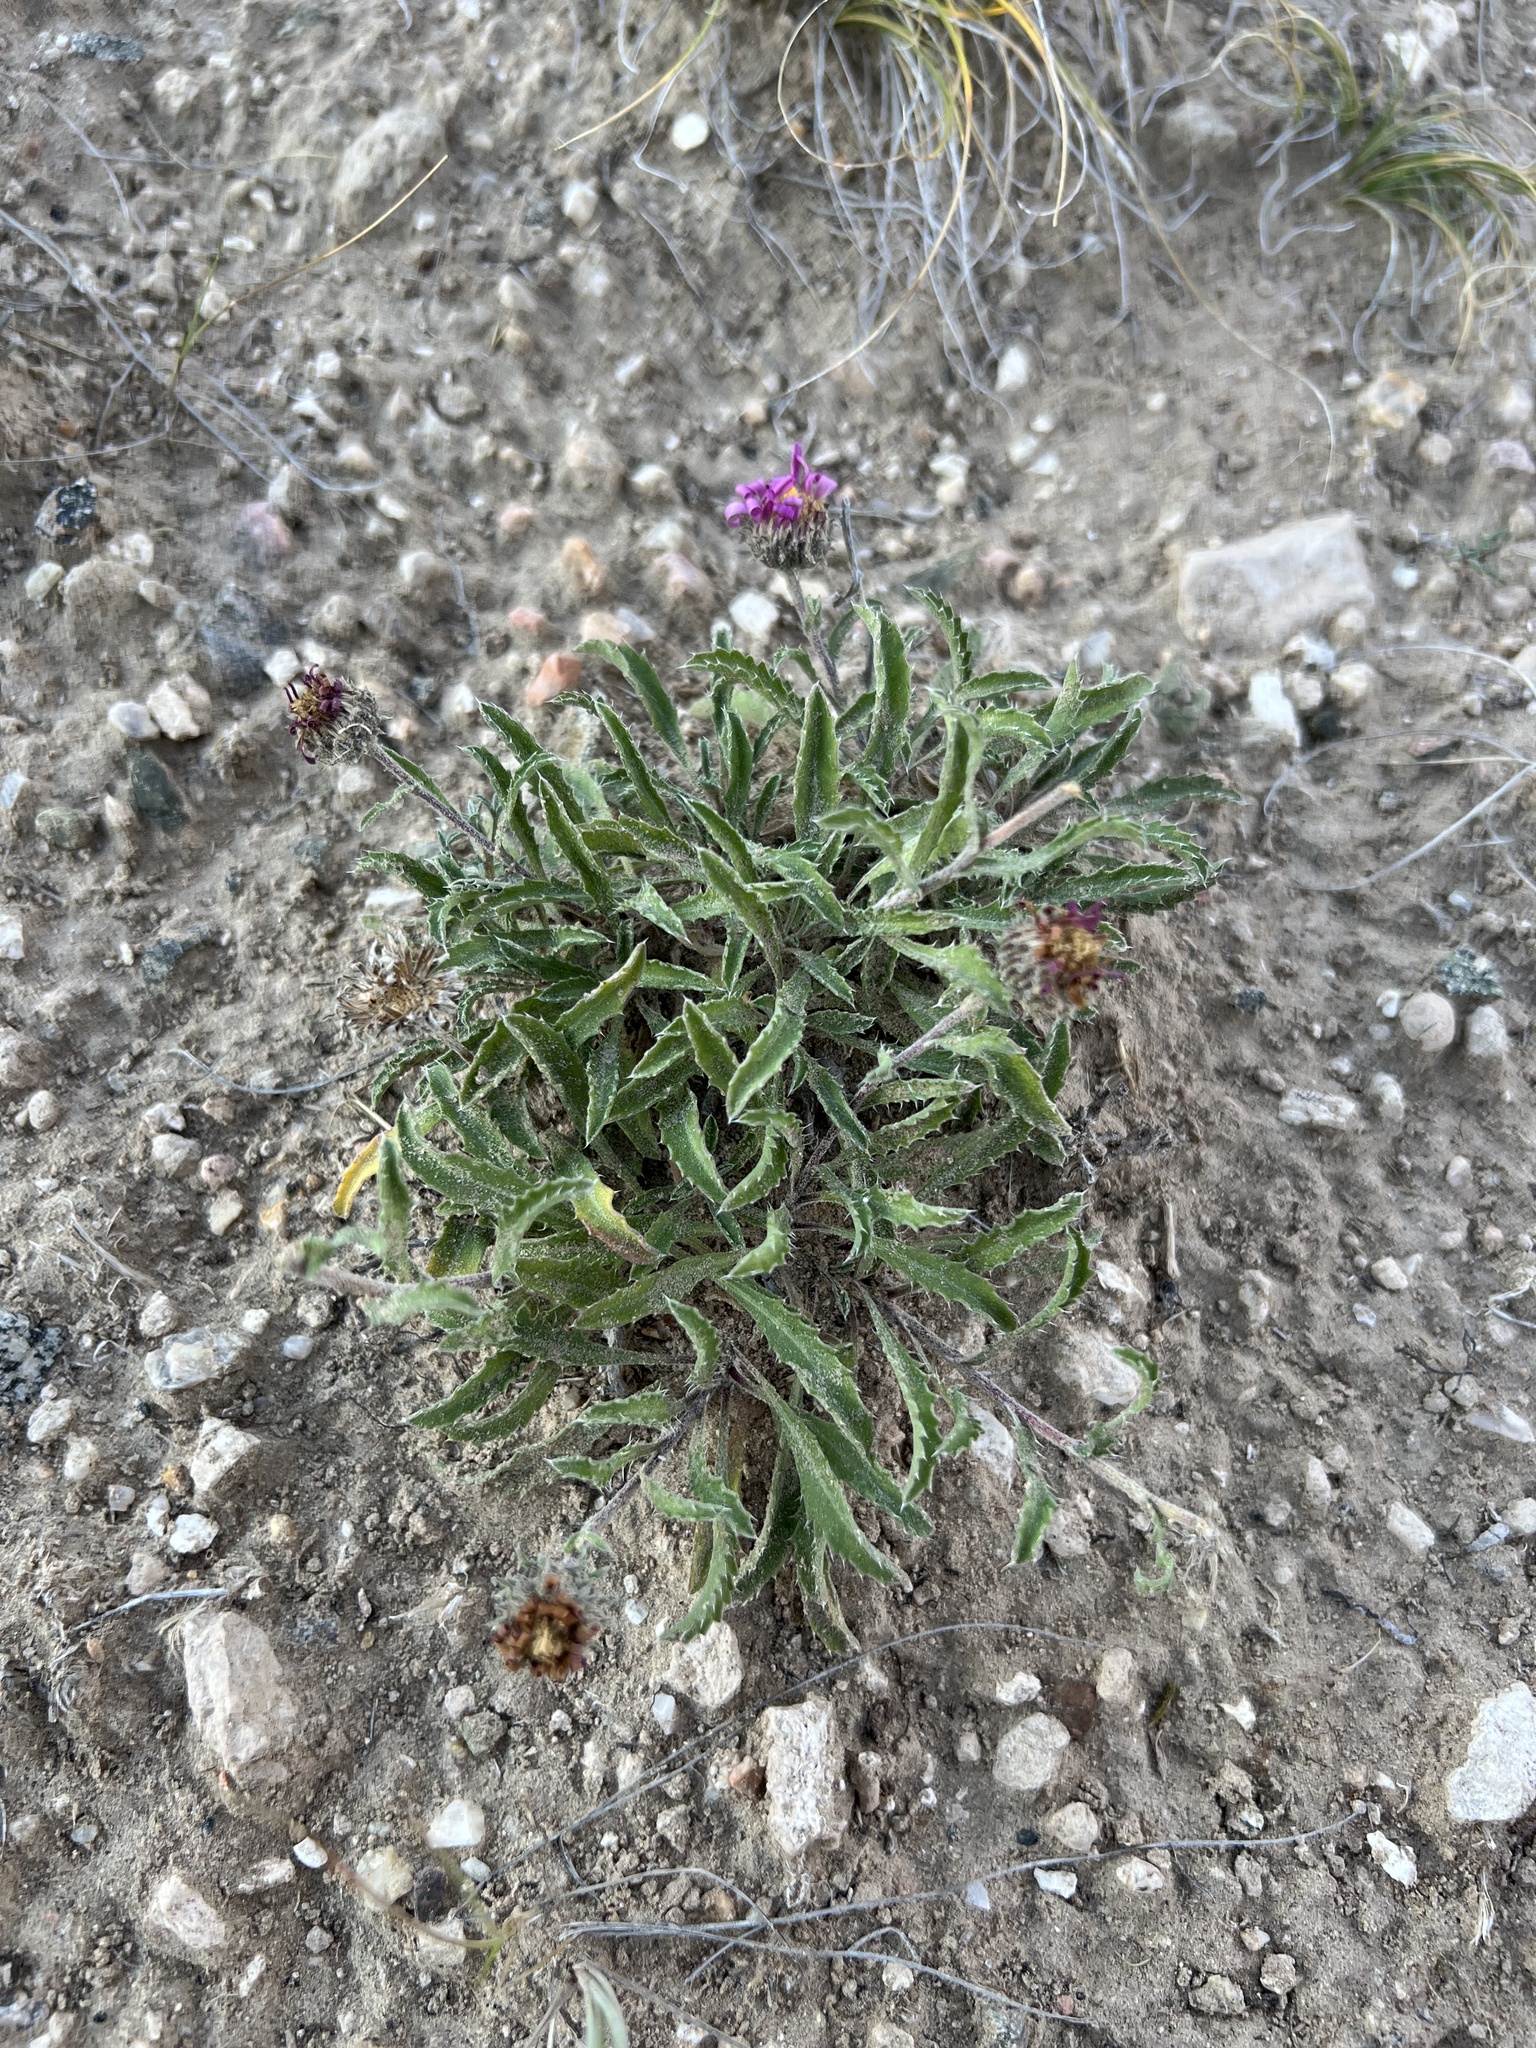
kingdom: Plantae
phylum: Tracheophyta
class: Magnoliopsida
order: Asterales
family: Asteraceae
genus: Xanthisma
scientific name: Xanthisma coloradoense
